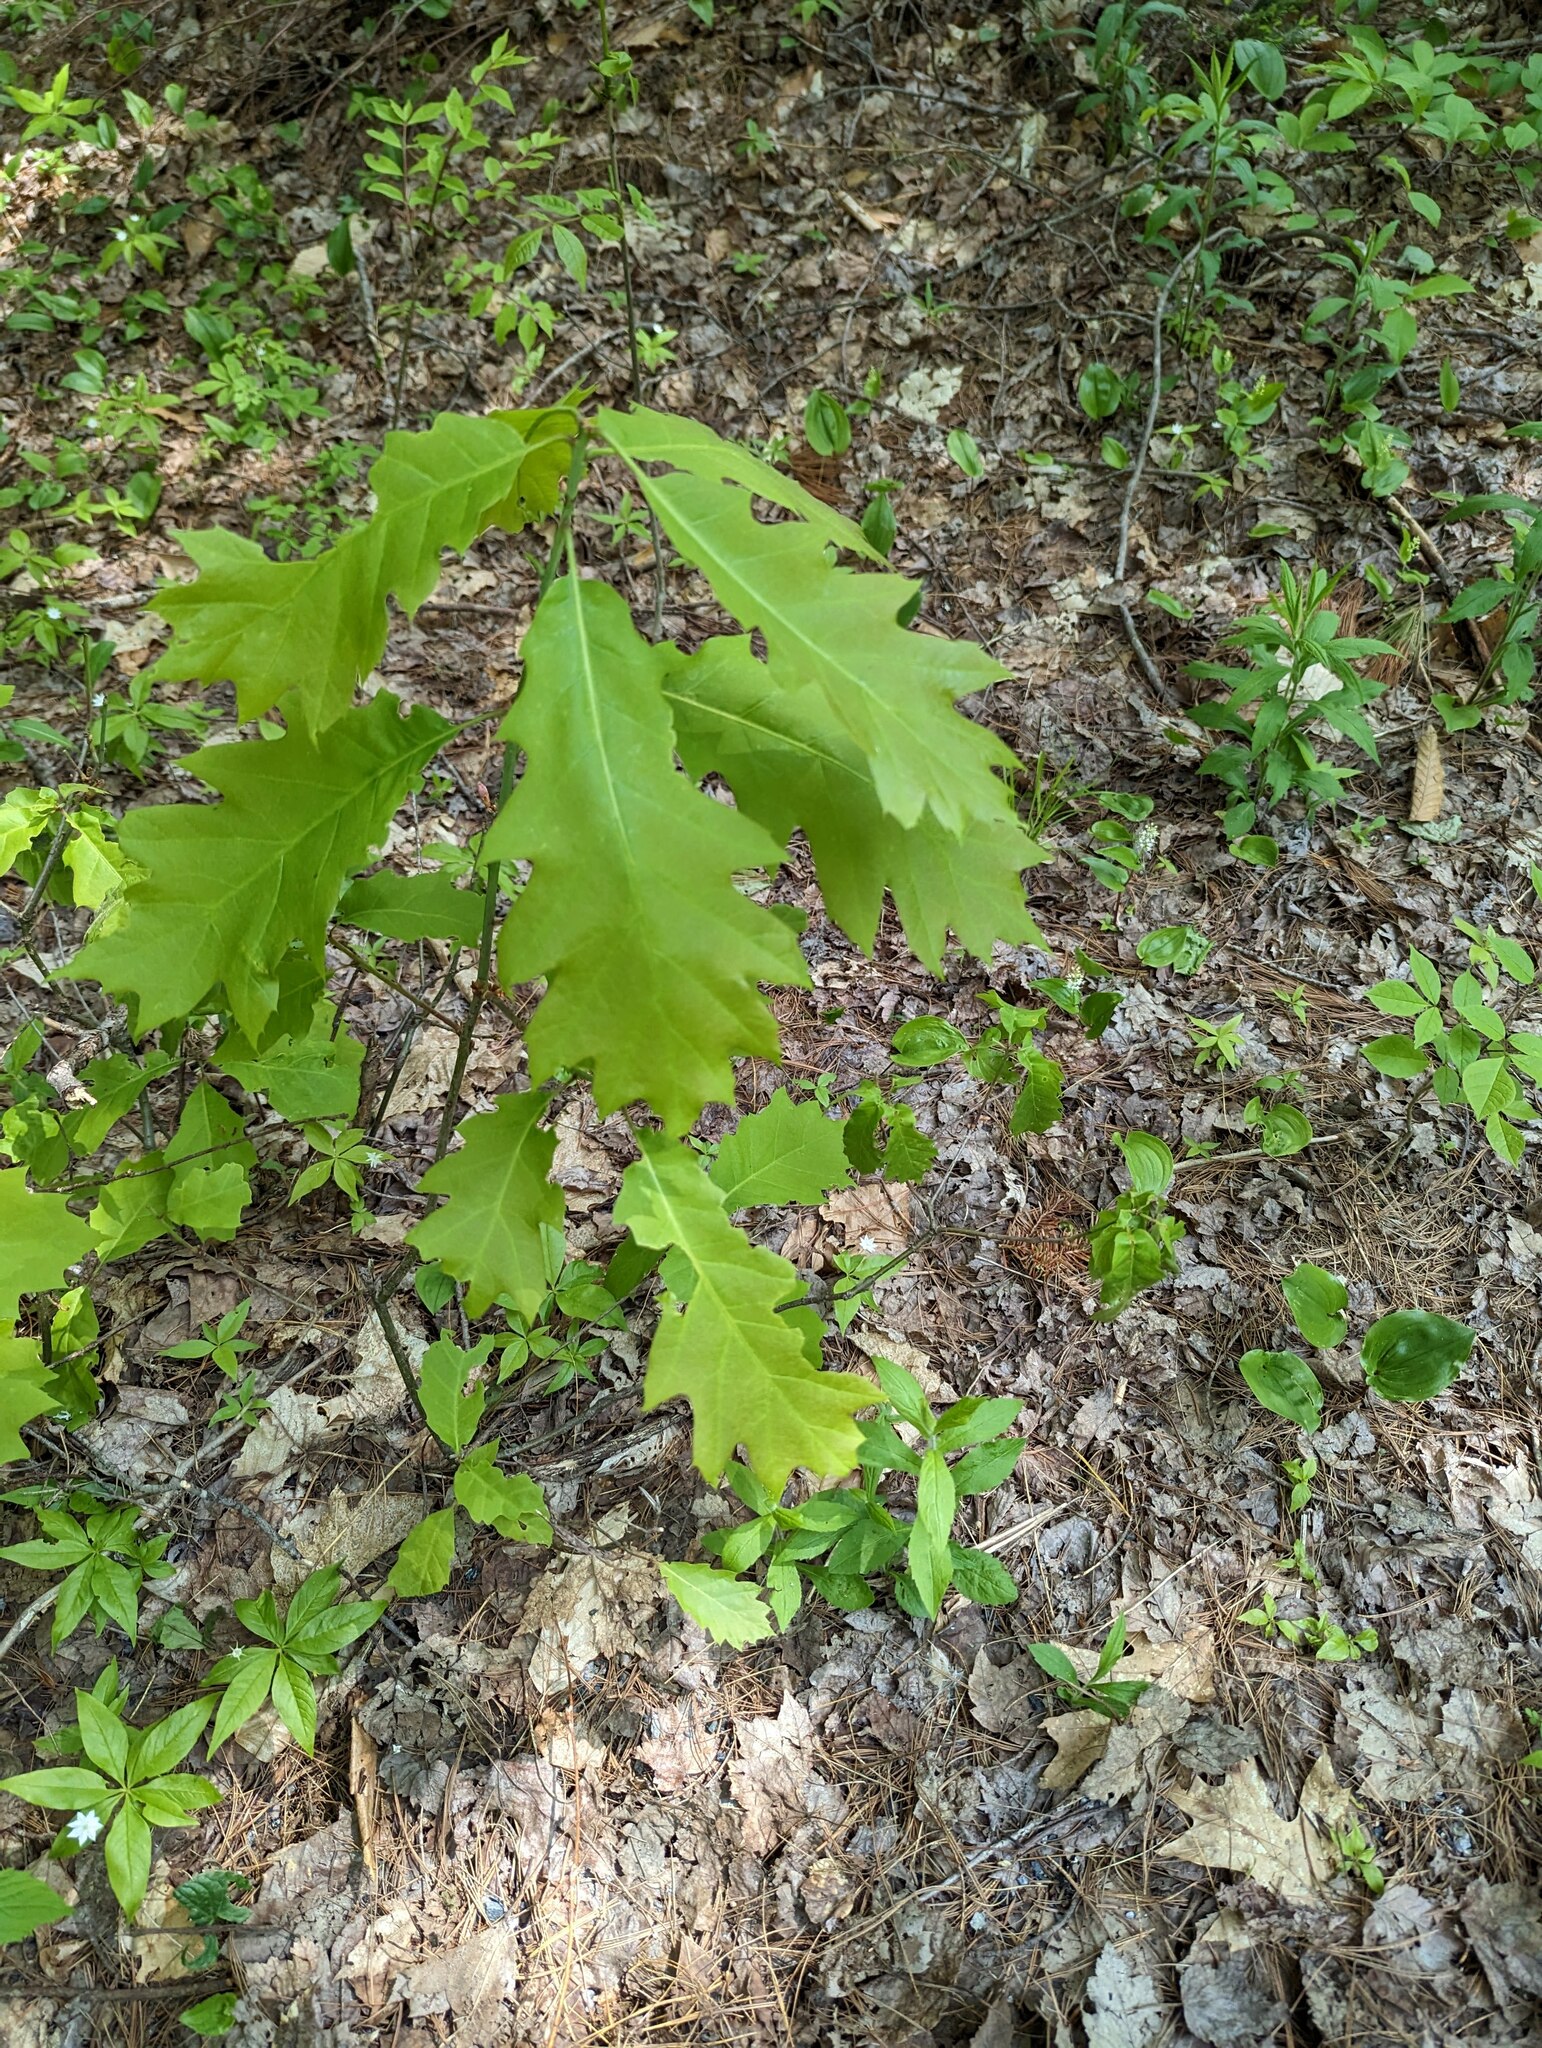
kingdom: Plantae
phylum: Tracheophyta
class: Magnoliopsida
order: Fagales
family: Fagaceae
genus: Quercus
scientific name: Quercus rubra
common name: Red oak
